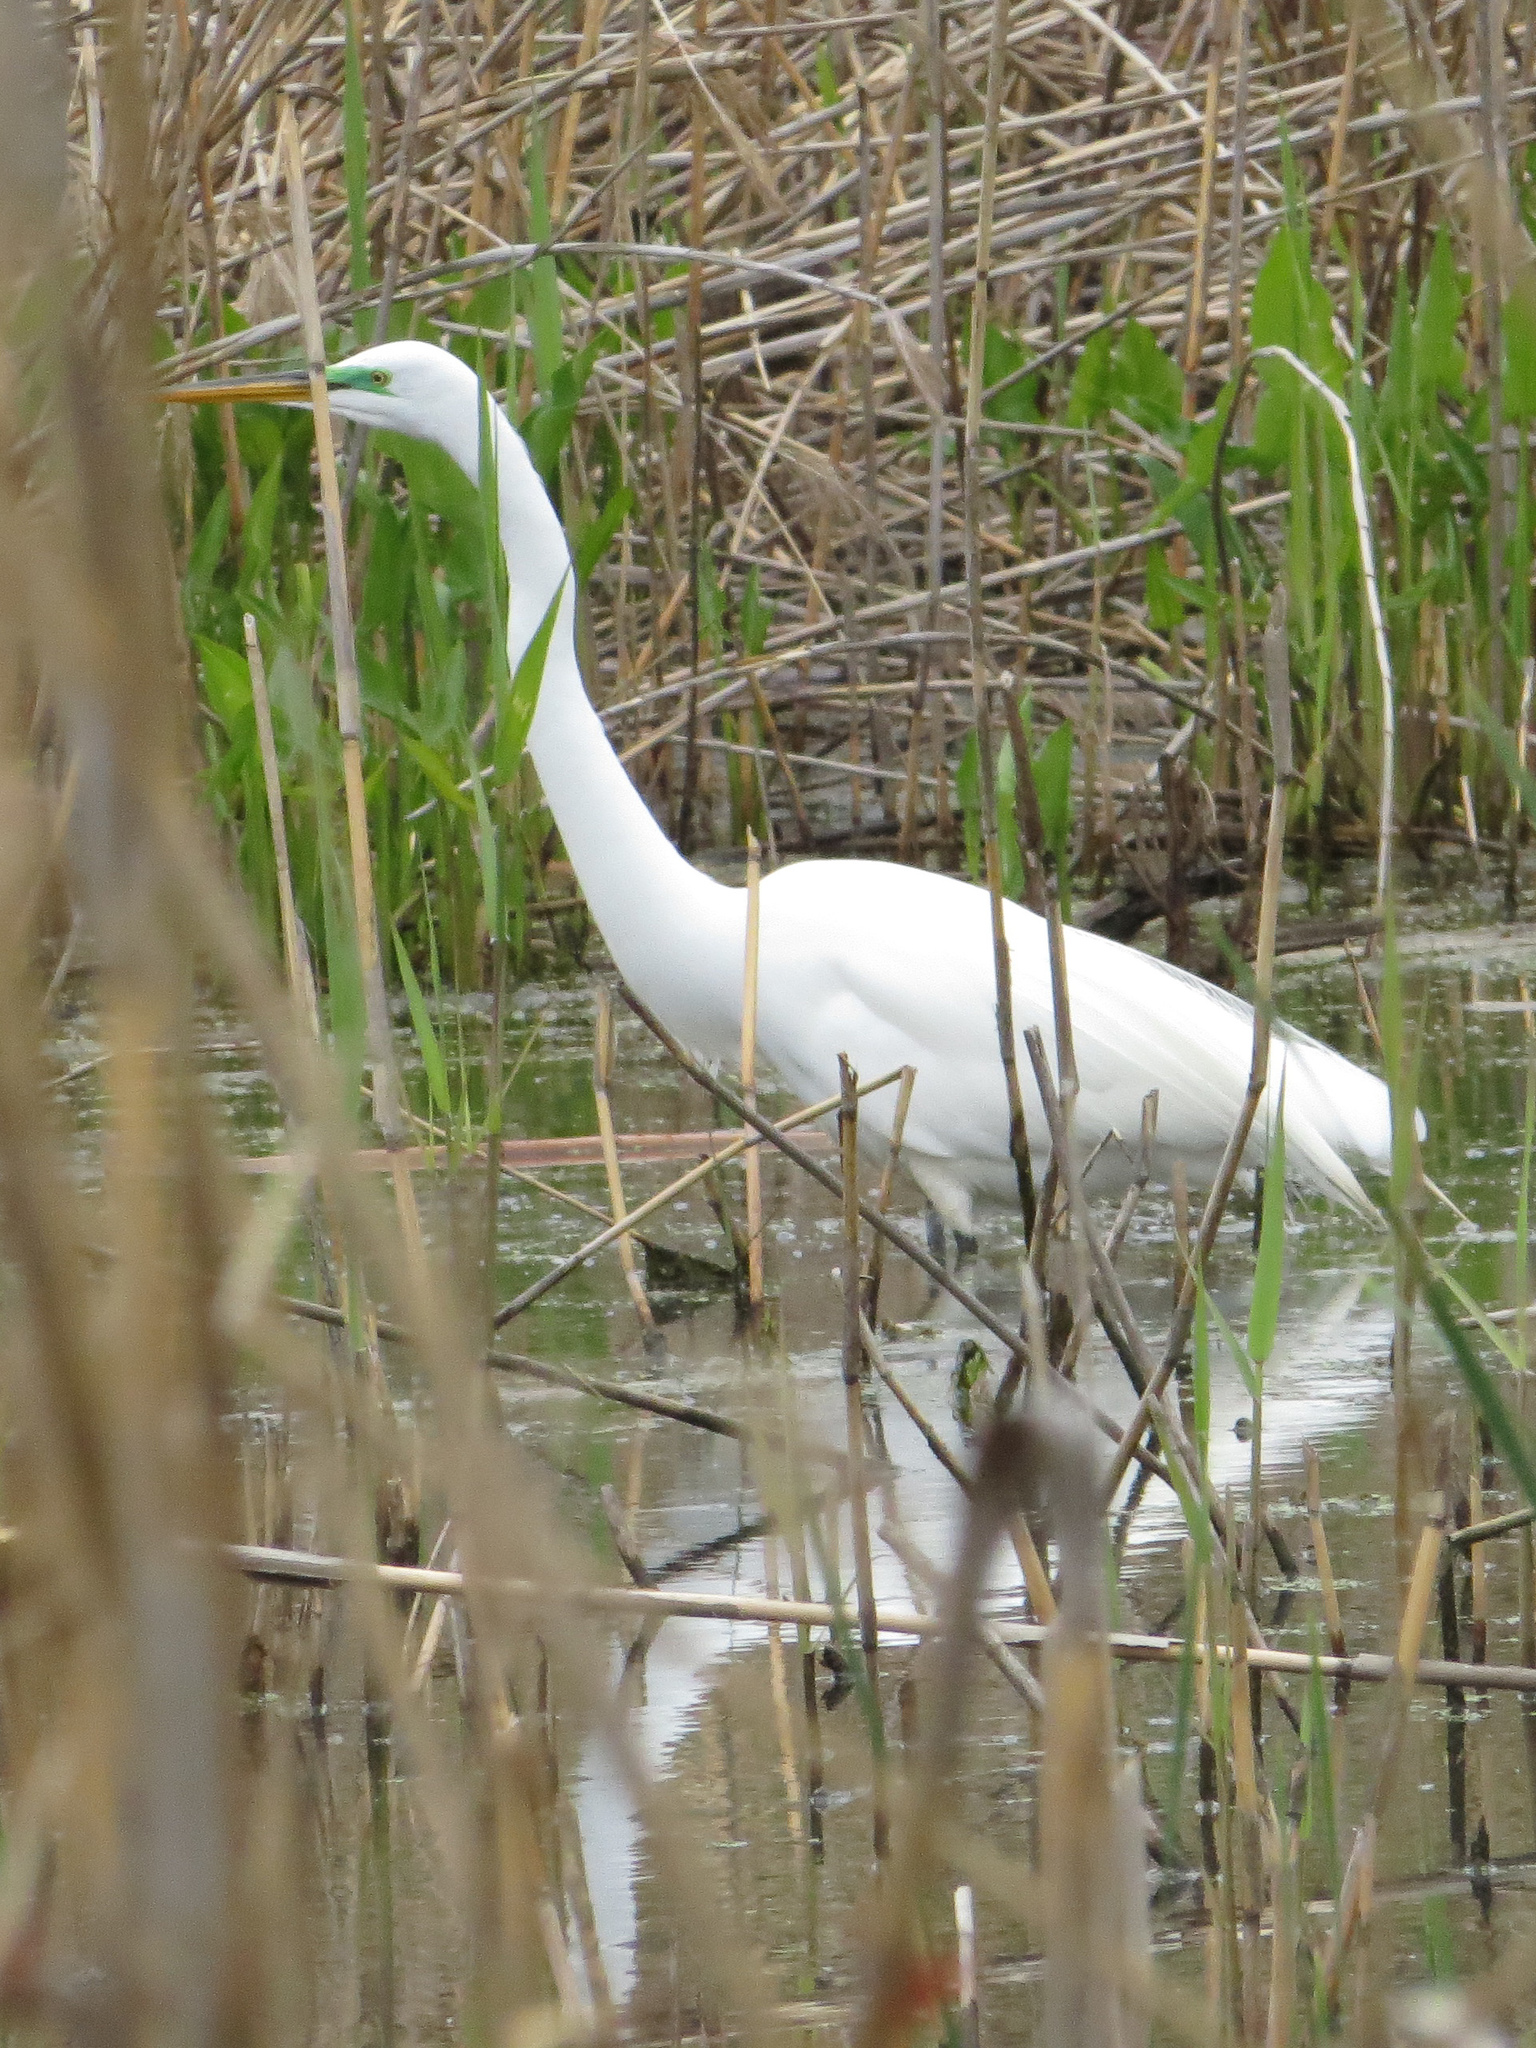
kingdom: Animalia
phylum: Chordata
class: Aves
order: Pelecaniformes
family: Ardeidae
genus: Ardea
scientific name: Ardea alba
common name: Great egret
